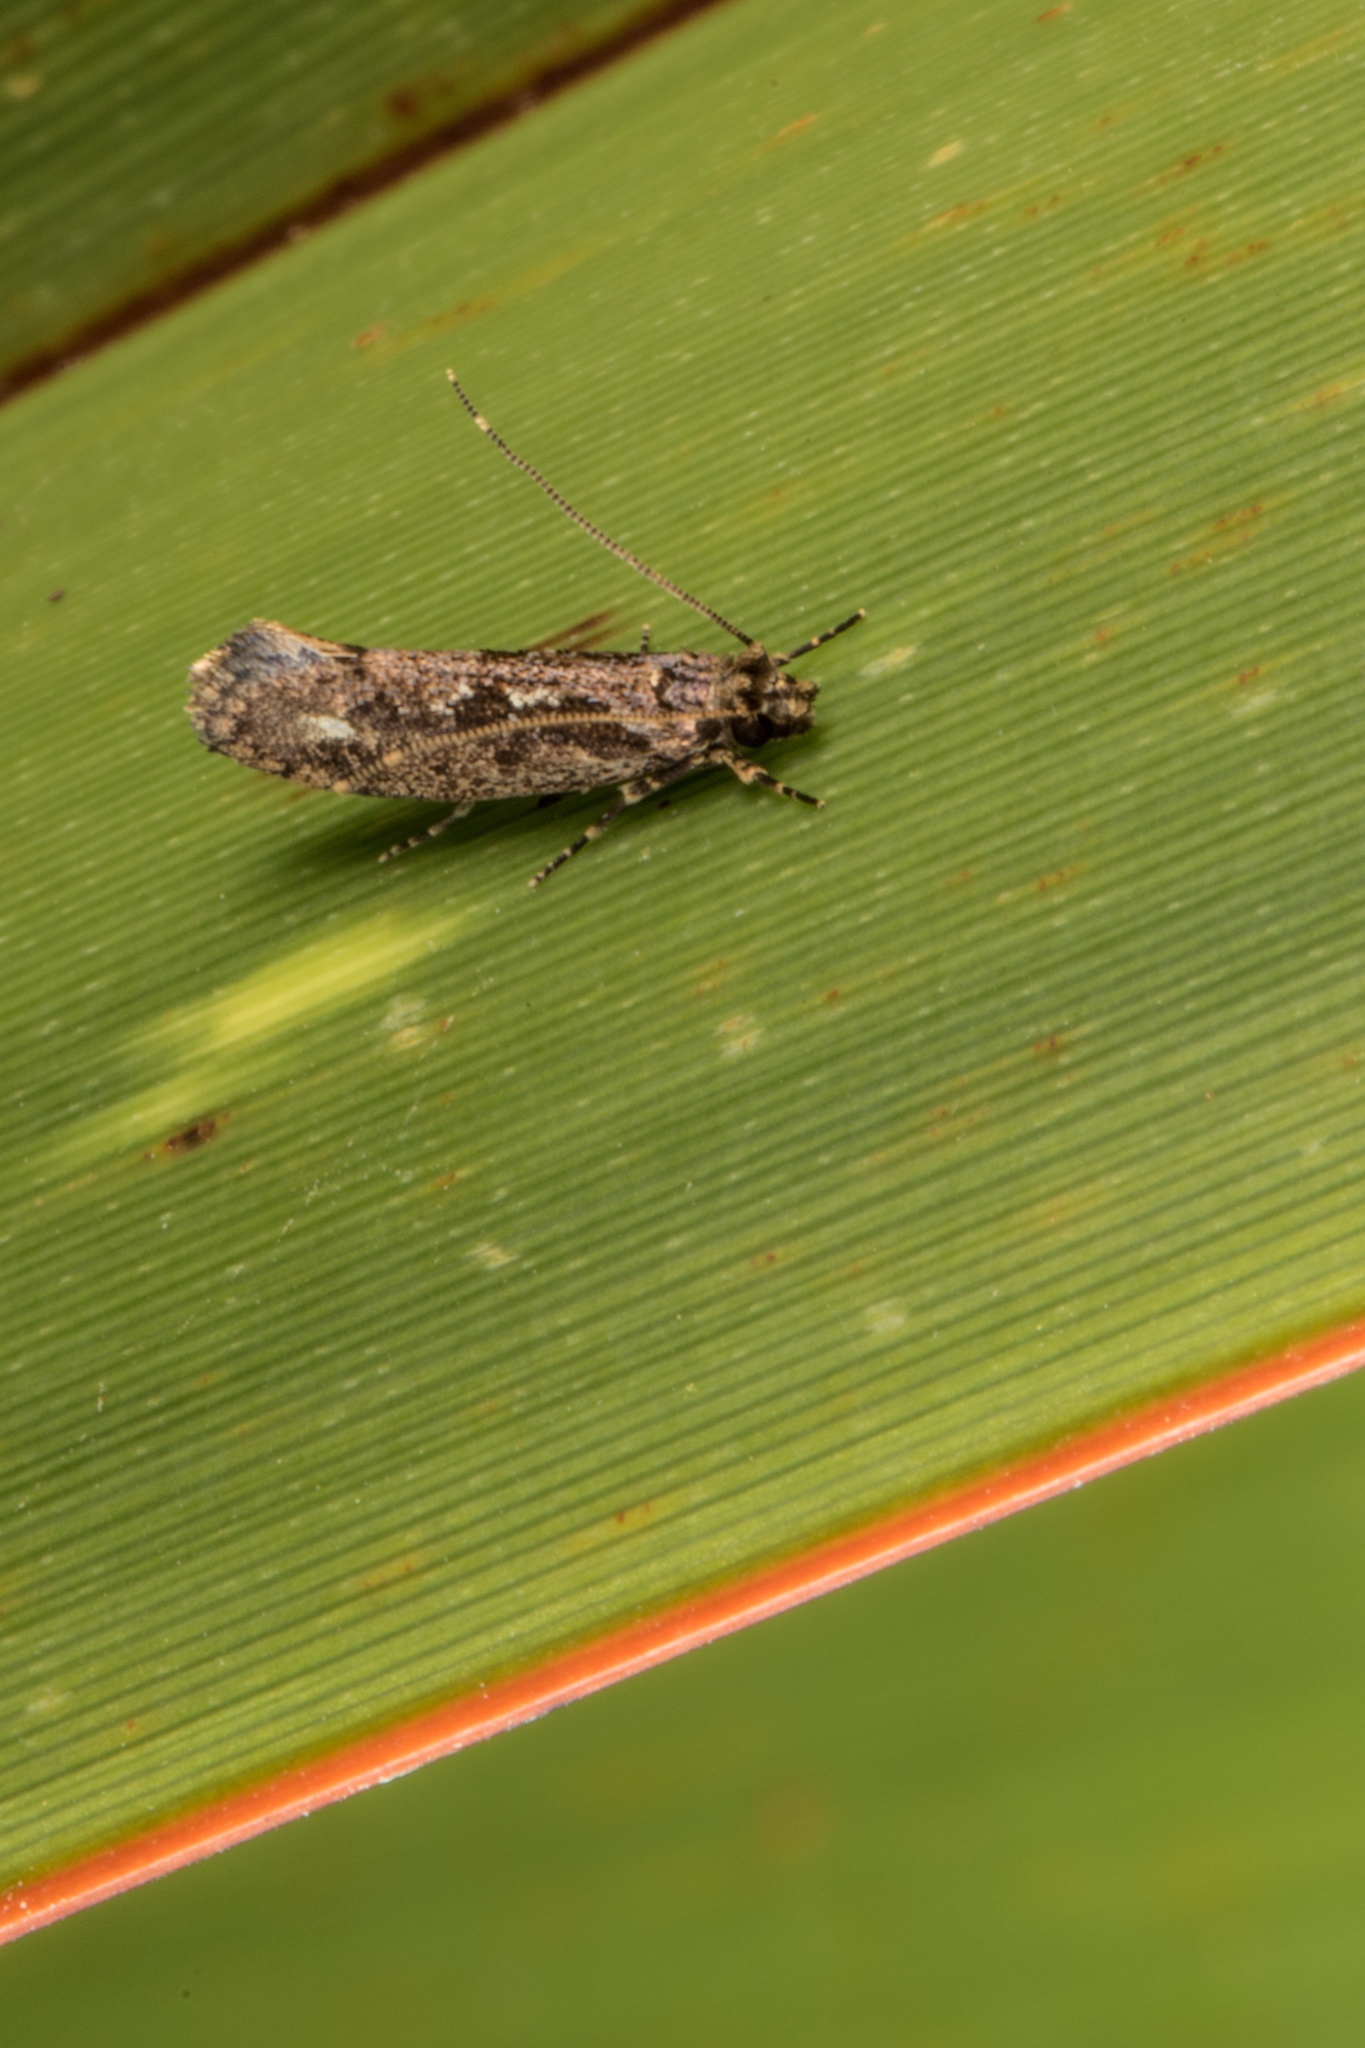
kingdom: Animalia
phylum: Arthropoda
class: Insecta
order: Lepidoptera
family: Tineidae
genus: Erechthias
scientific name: Erechthias capnitis
